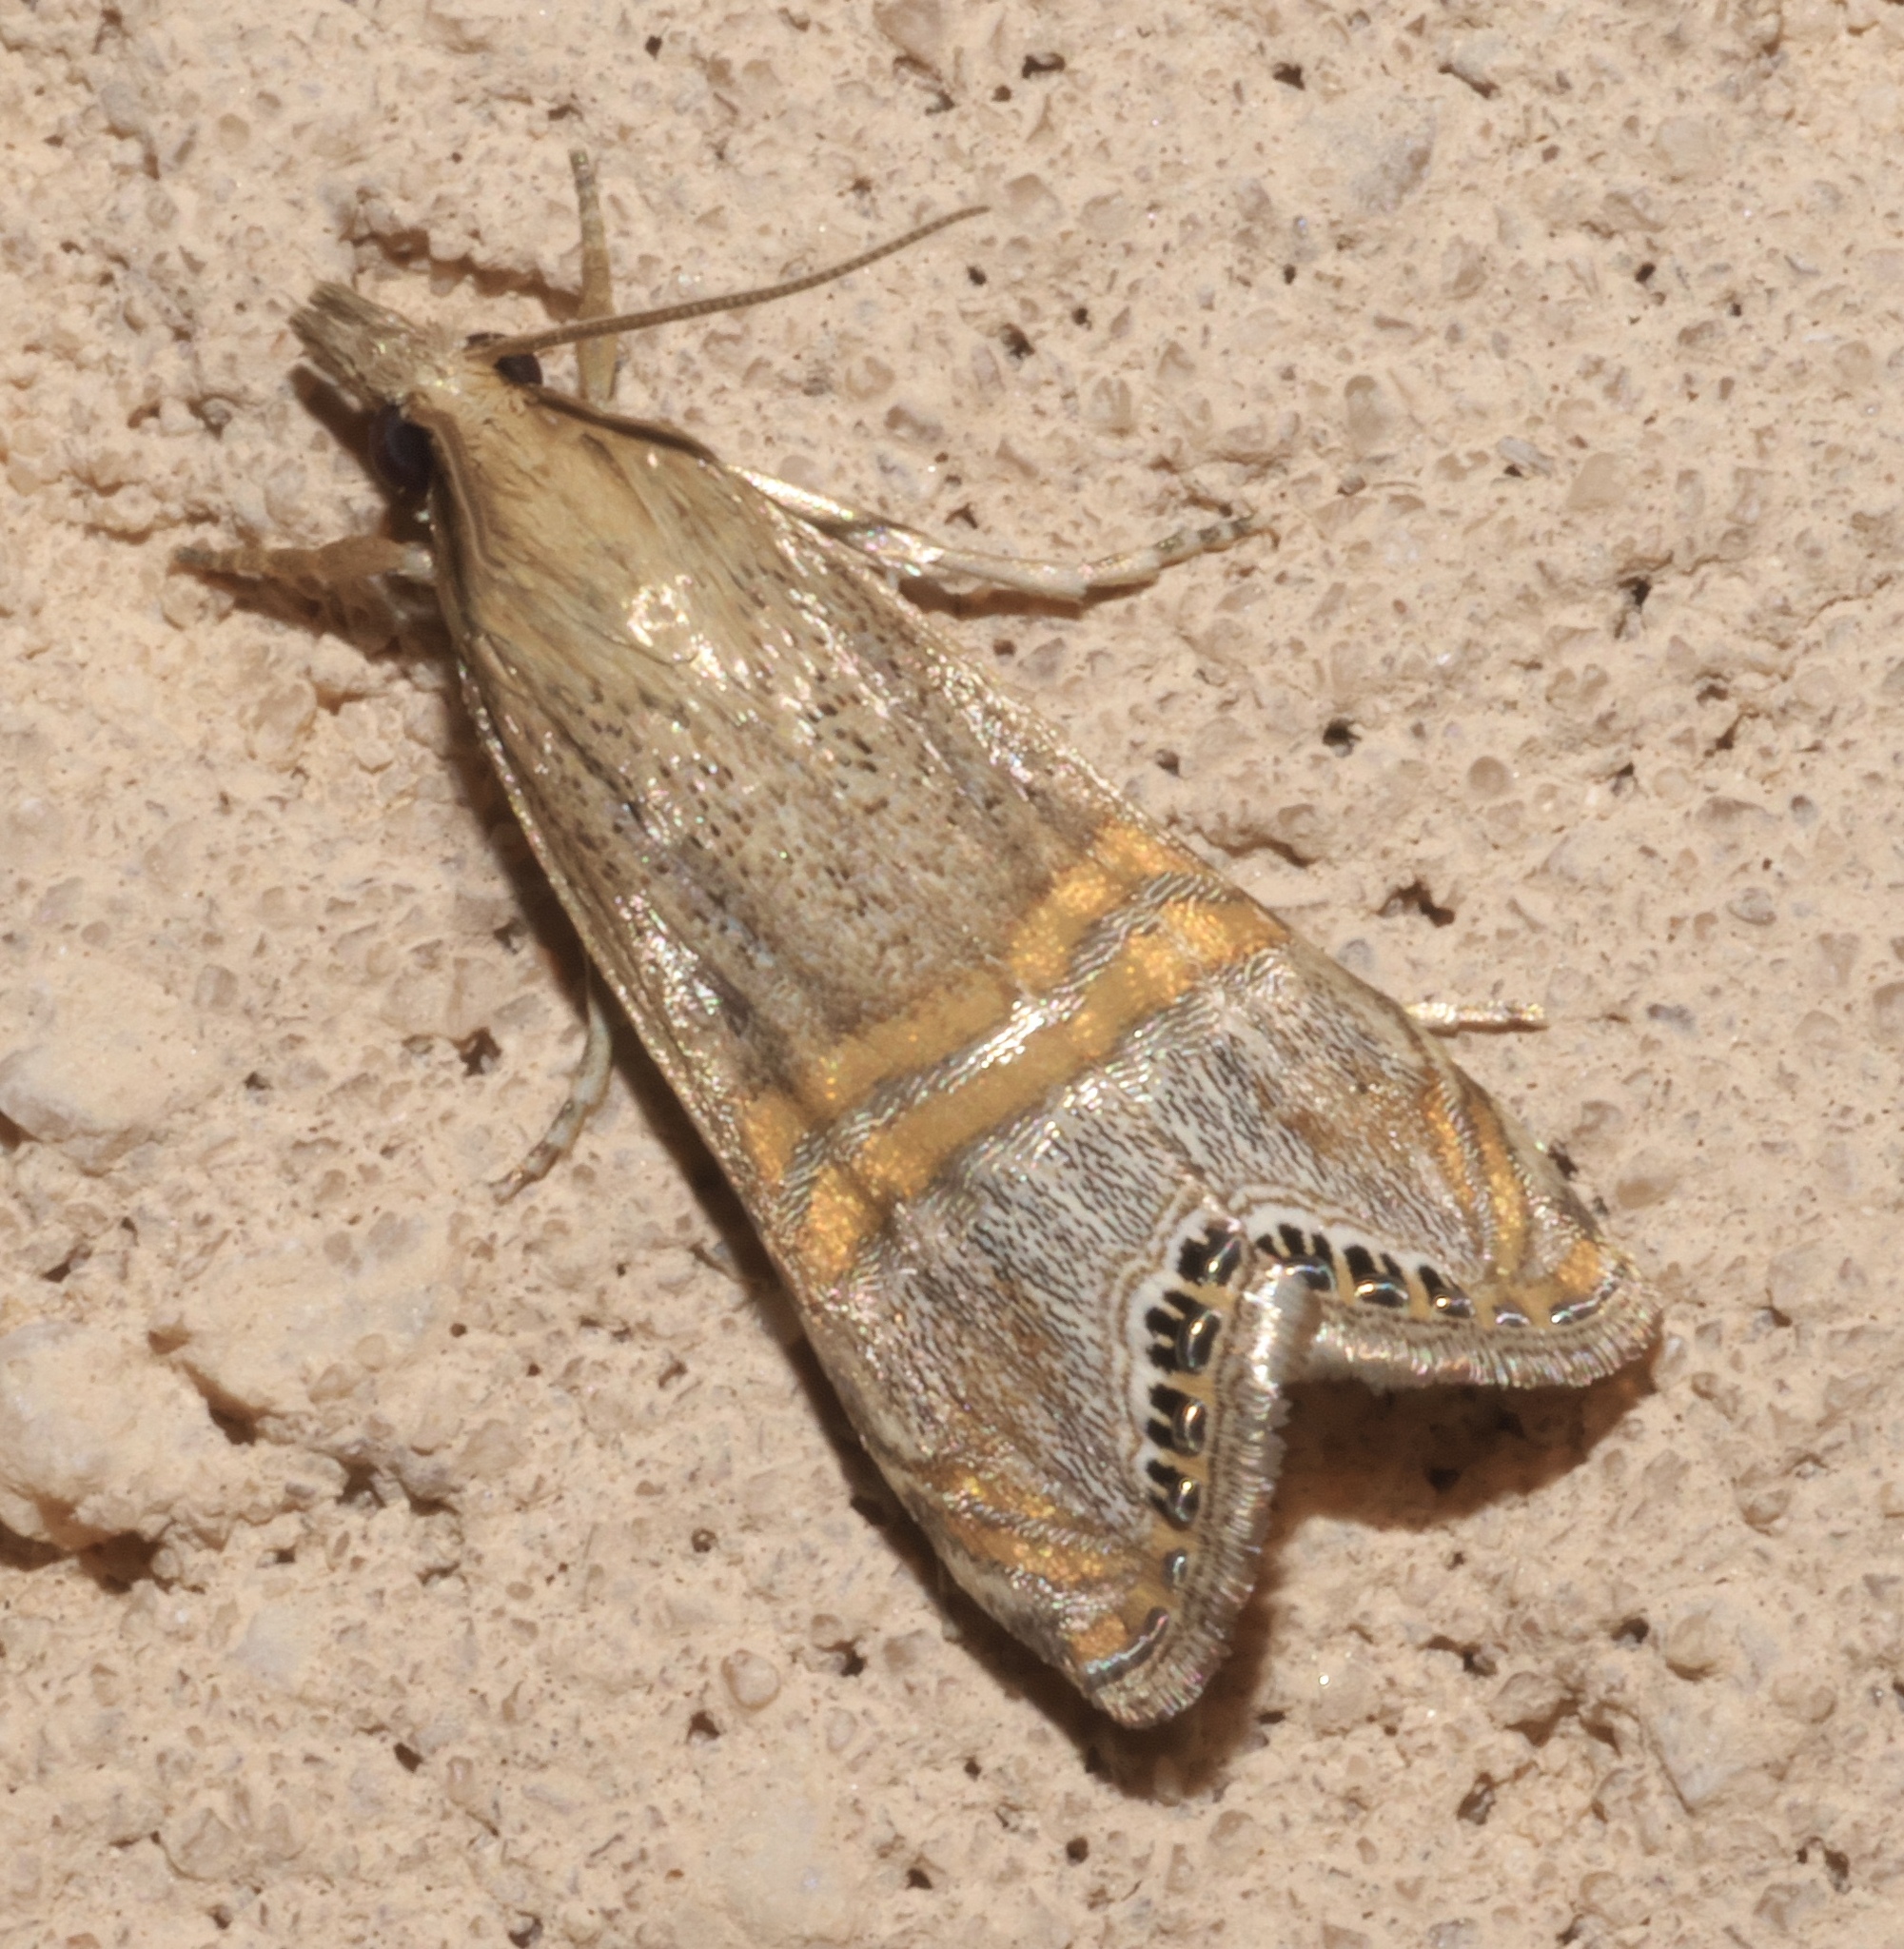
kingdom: Animalia
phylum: Arthropoda
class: Insecta
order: Lepidoptera
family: Crambidae
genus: Euchromius
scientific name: Euchromius ocellea
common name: Necklace veneer moth
